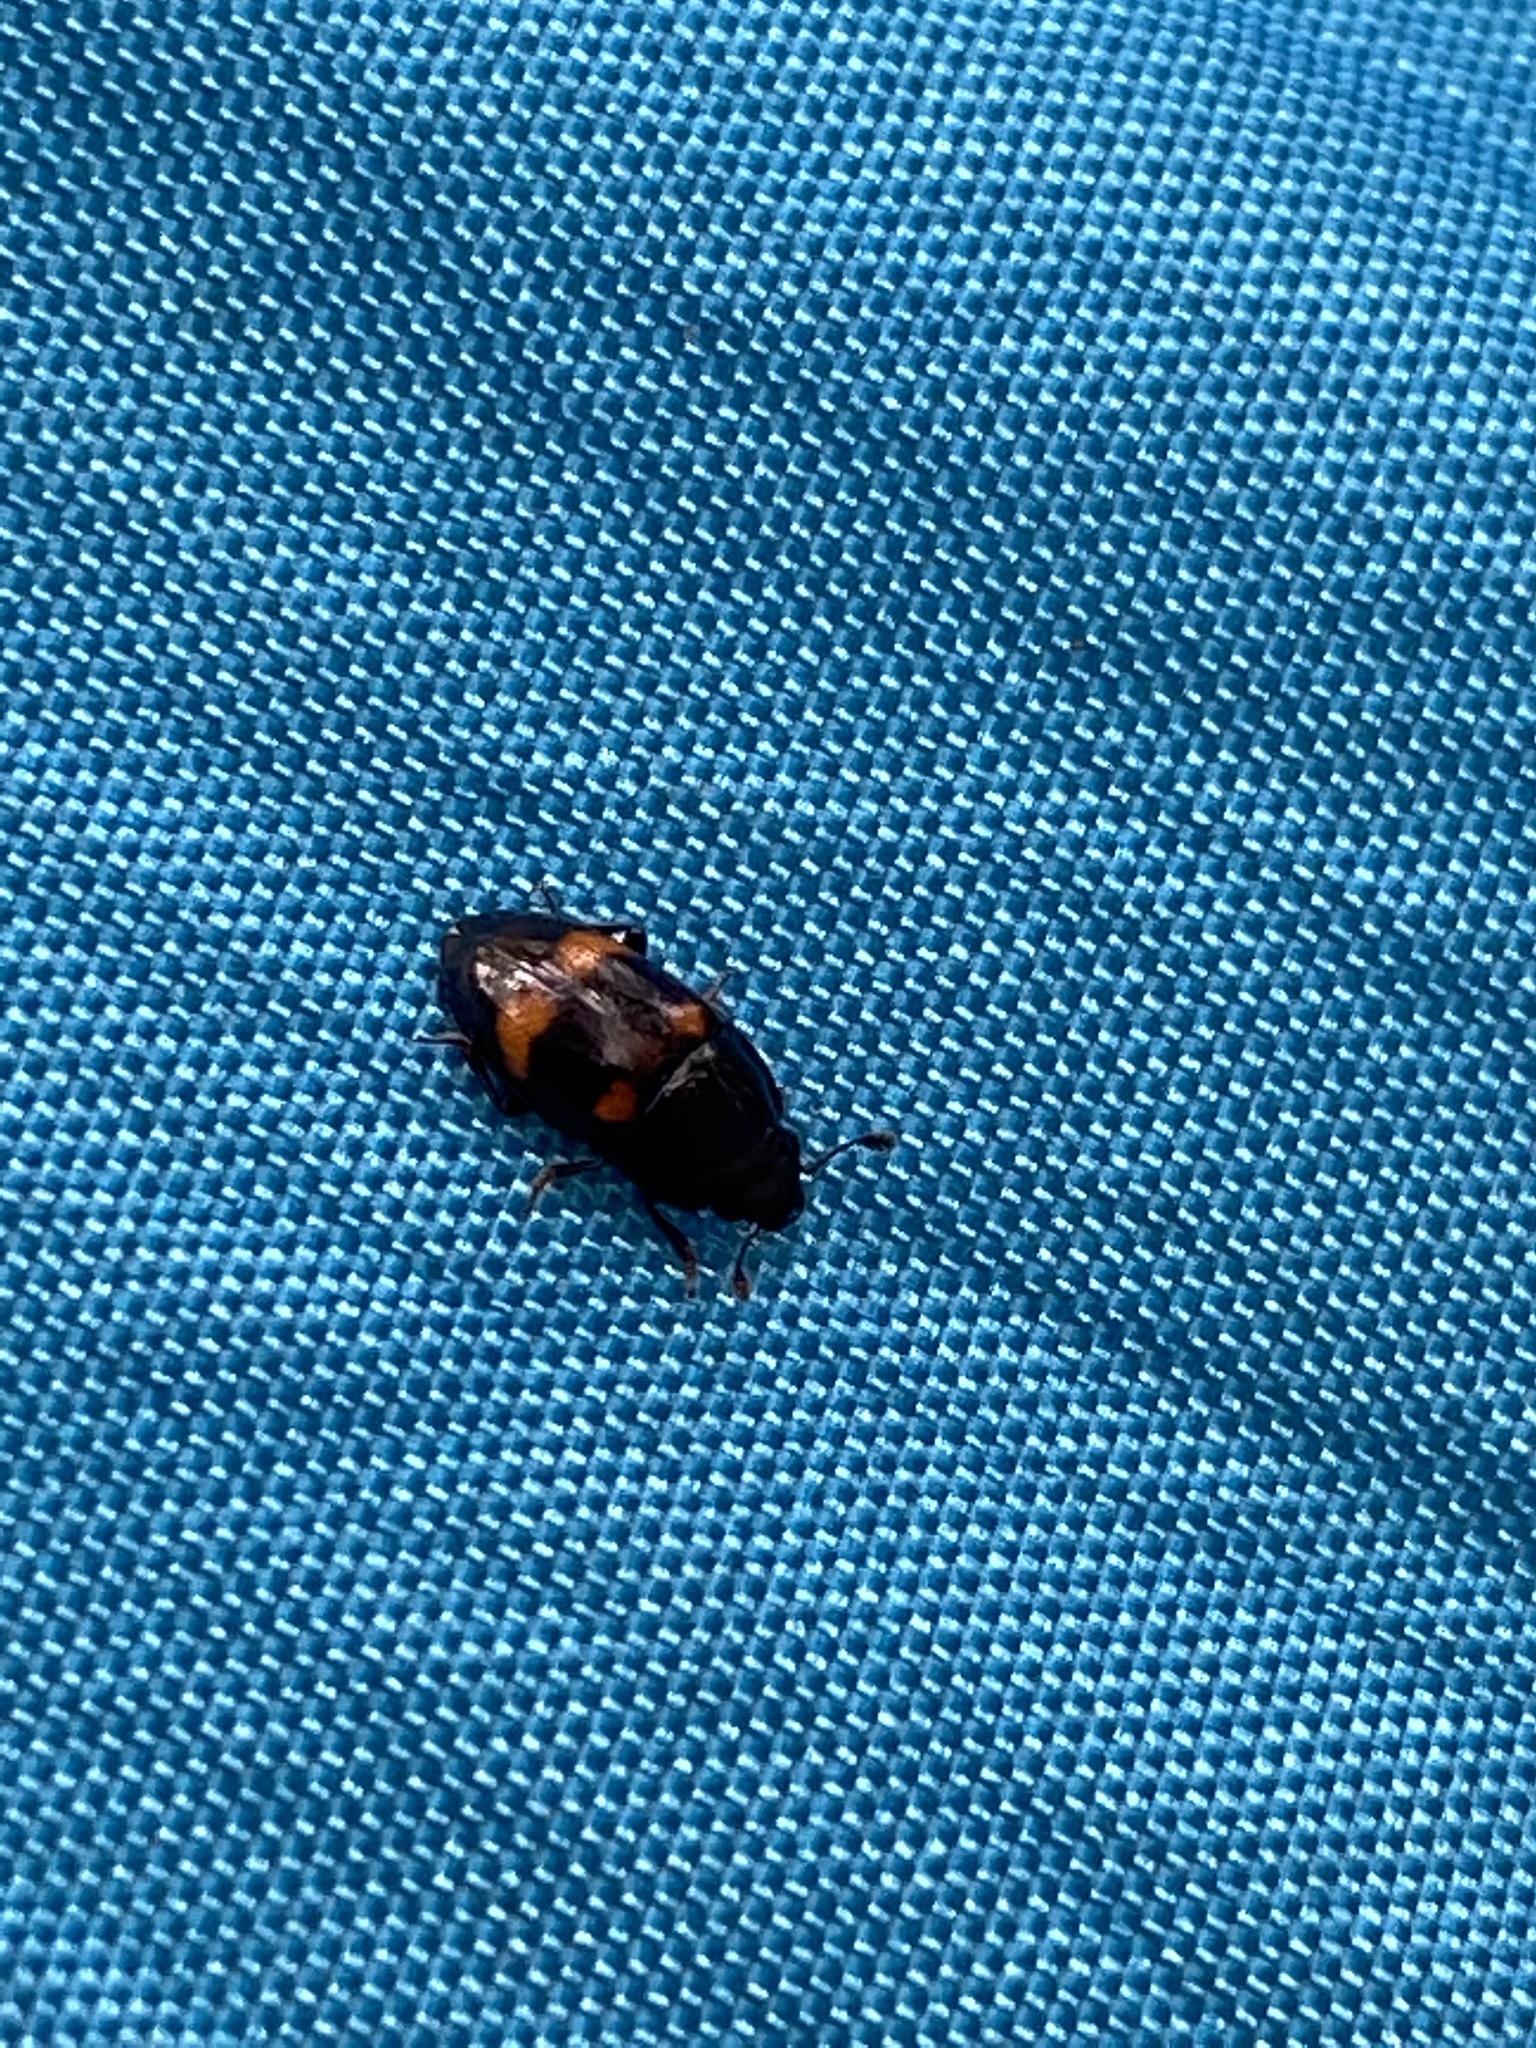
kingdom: Animalia
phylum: Arthropoda
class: Insecta
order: Coleoptera
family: Nitidulidae
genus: Glischrochilus
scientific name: Glischrochilus sanguinolentus
